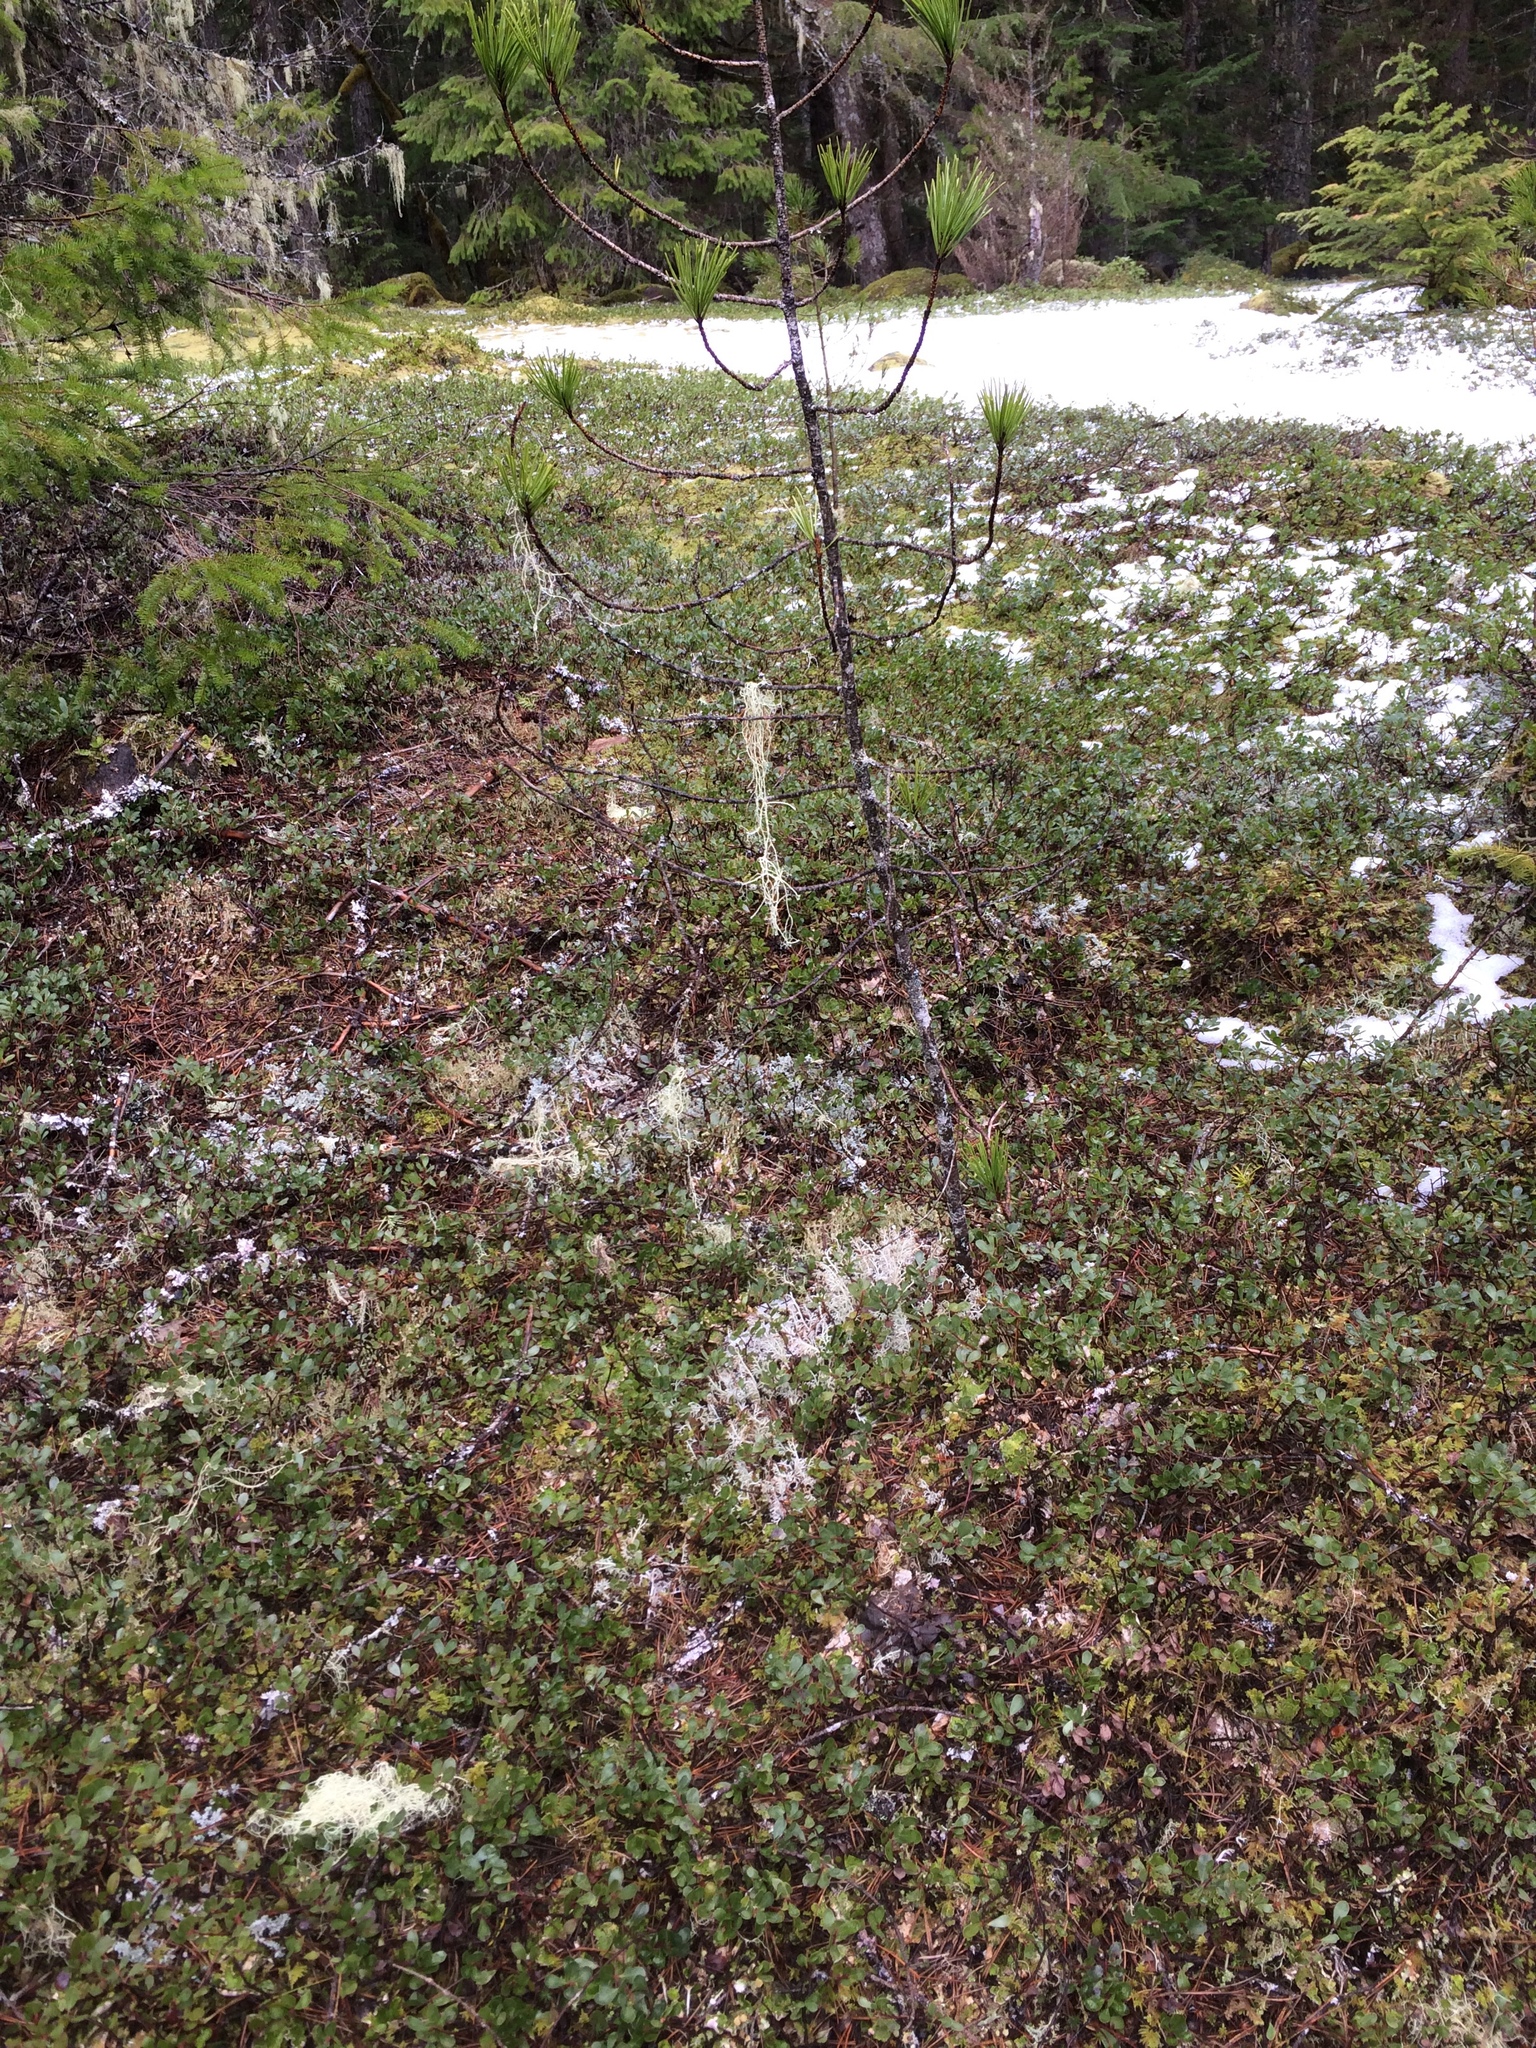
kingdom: Plantae
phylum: Tracheophyta
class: Magnoliopsida
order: Ericales
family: Ericaceae
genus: Arctostaphylos
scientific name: Arctostaphylos nevadensis
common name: Pinemat manzanita
